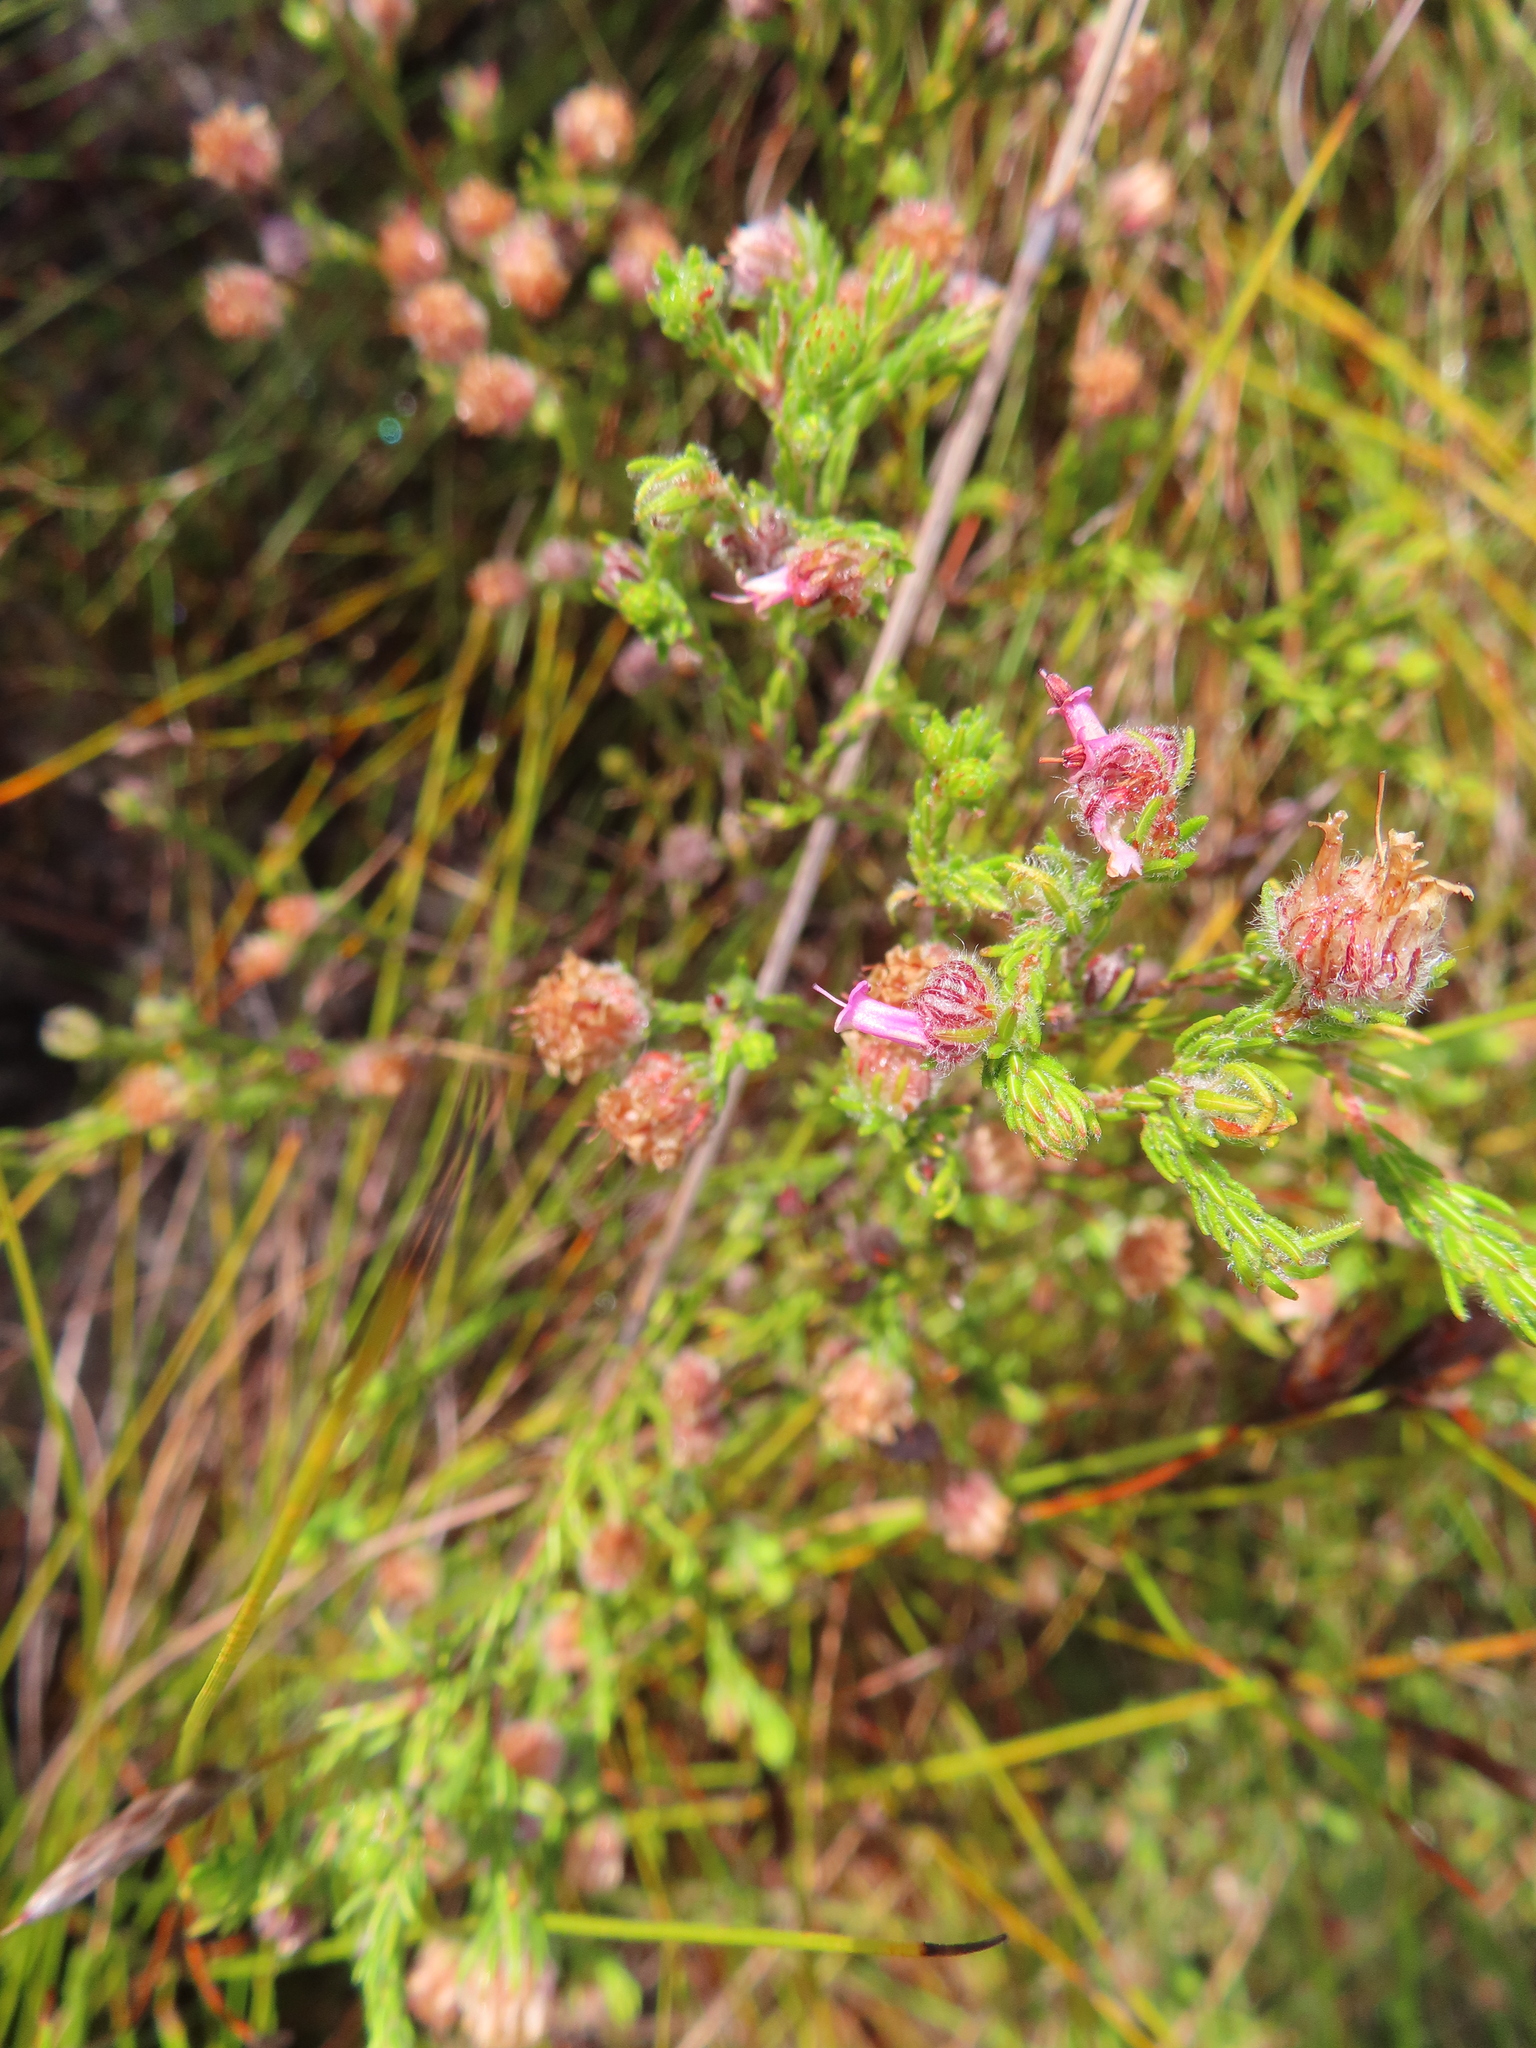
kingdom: Plantae
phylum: Tracheophyta
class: Magnoliopsida
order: Ericales
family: Ericaceae
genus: Erica
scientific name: Erica barbigeroides
